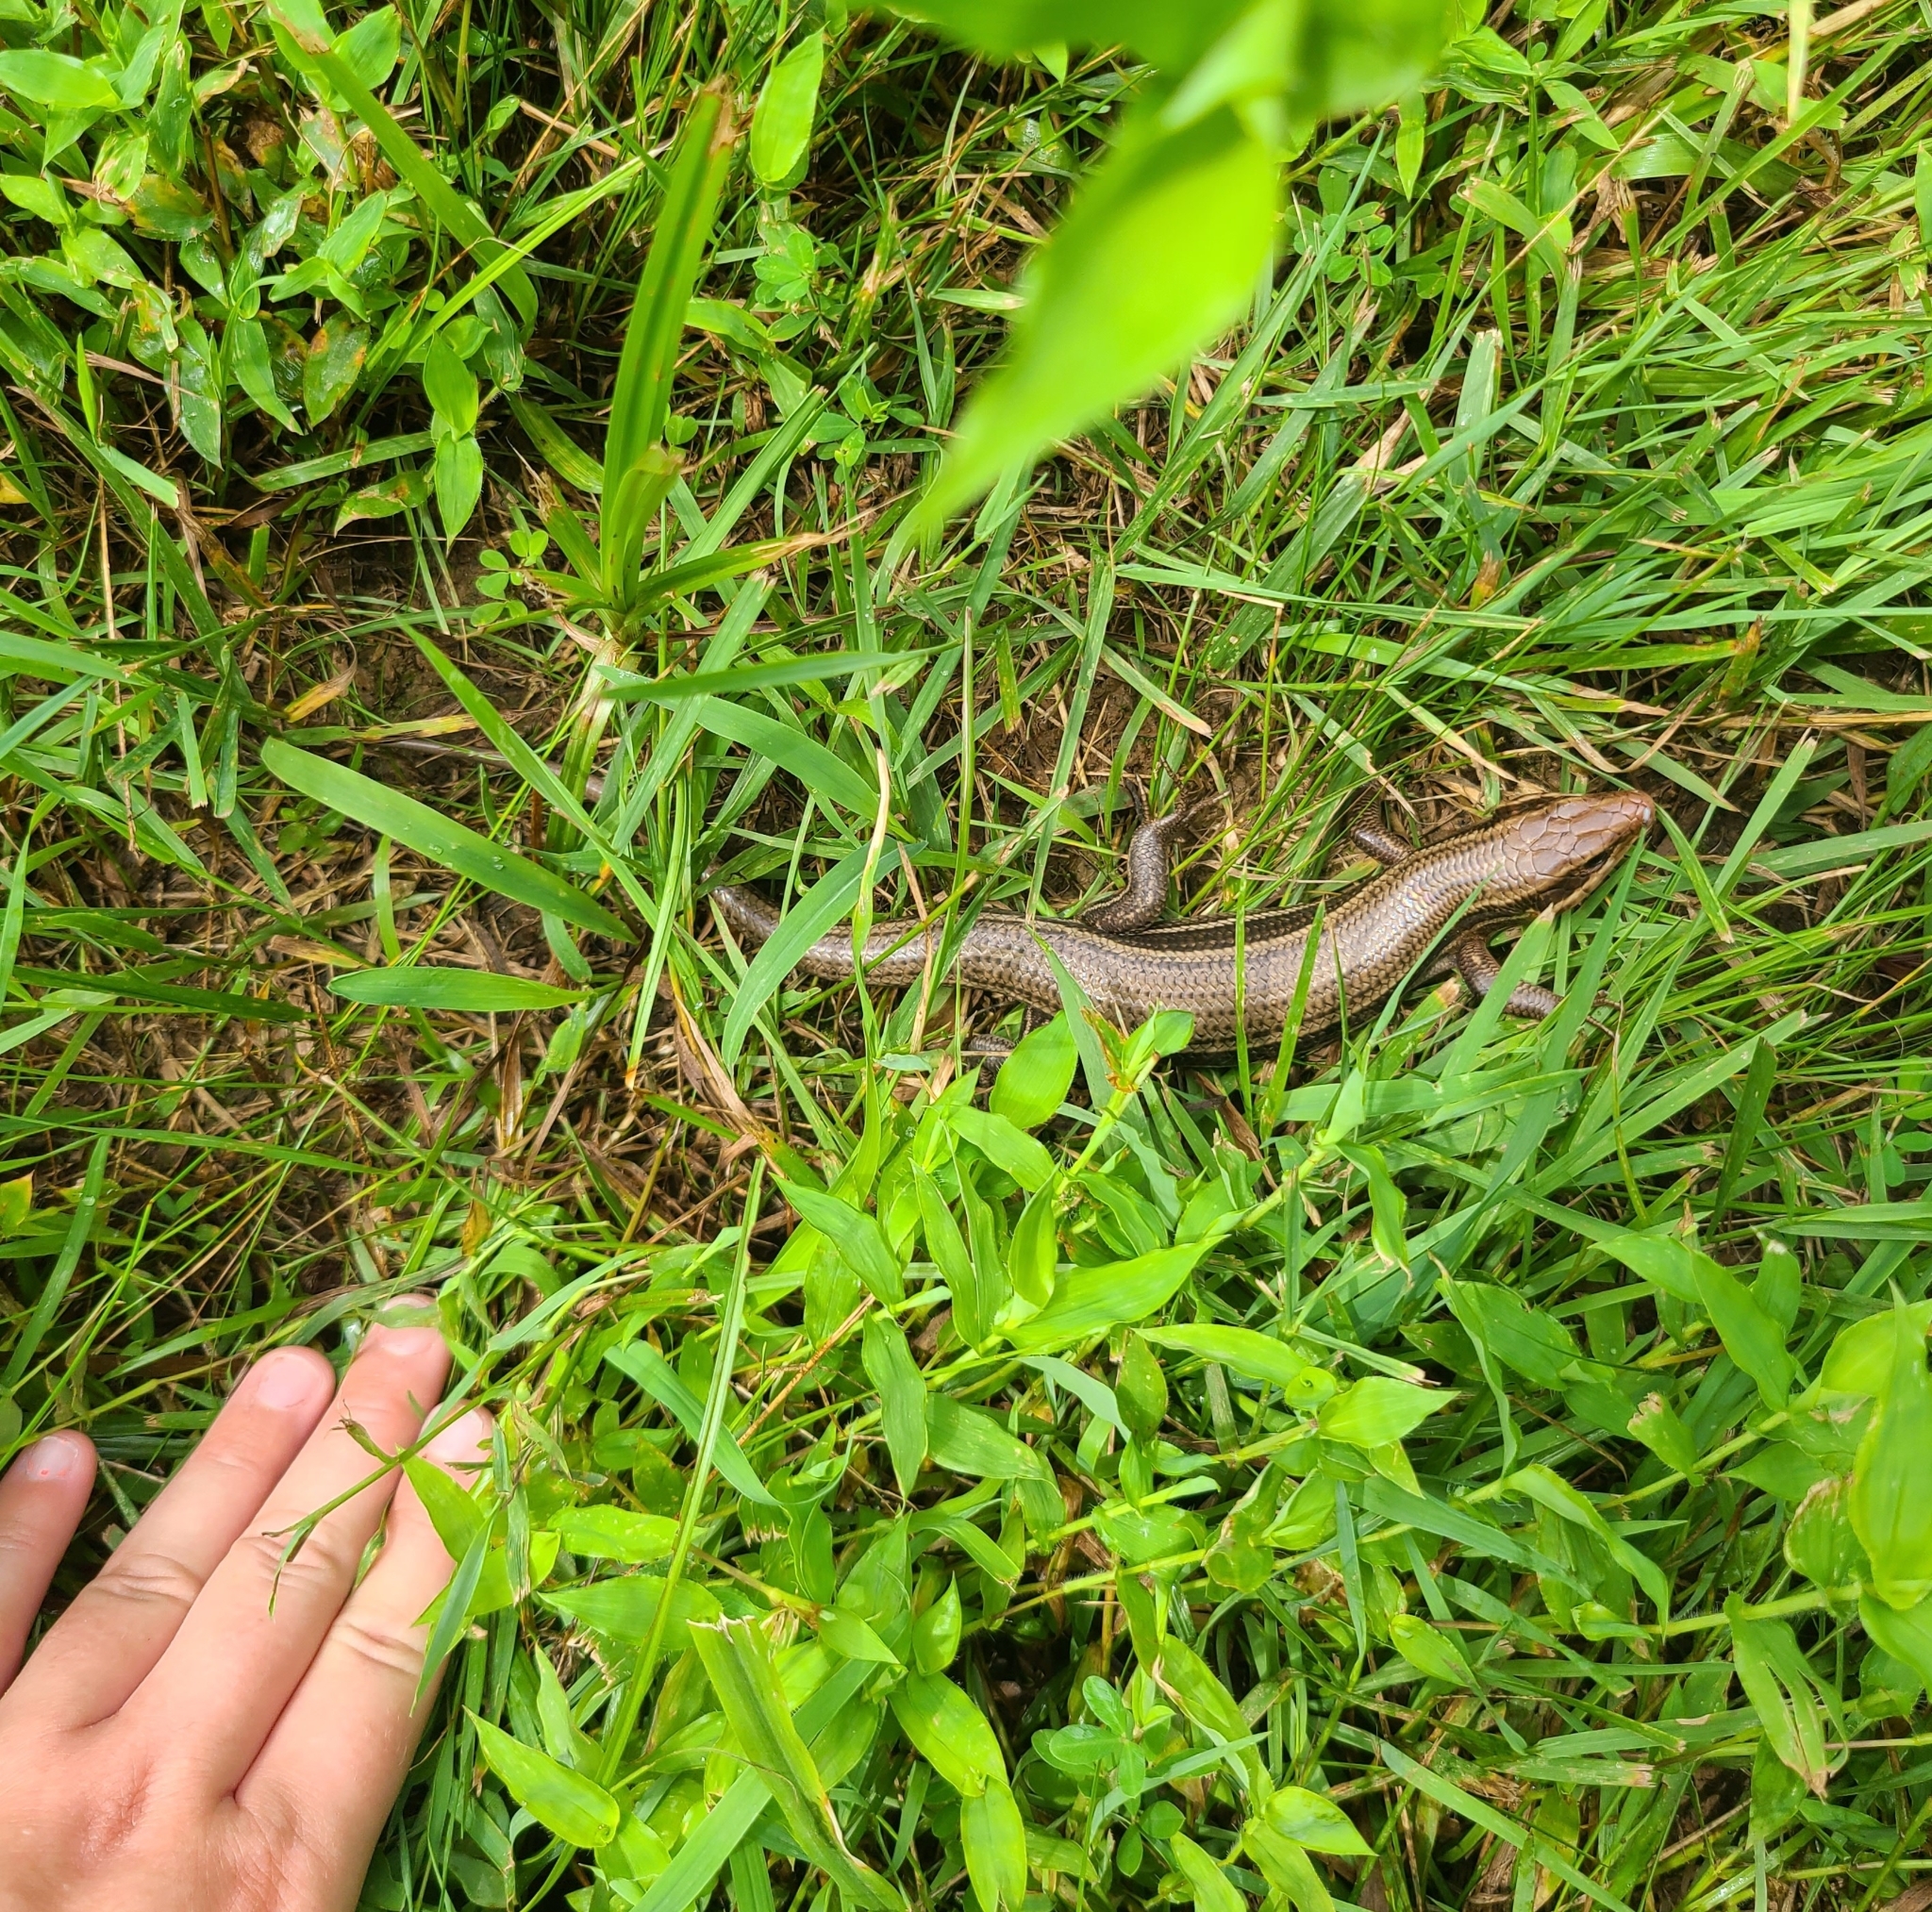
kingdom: Animalia
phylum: Chordata
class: Squamata
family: Scincidae
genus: Plestiodon
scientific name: Plestiodon laticeps
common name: Broadhead skink
